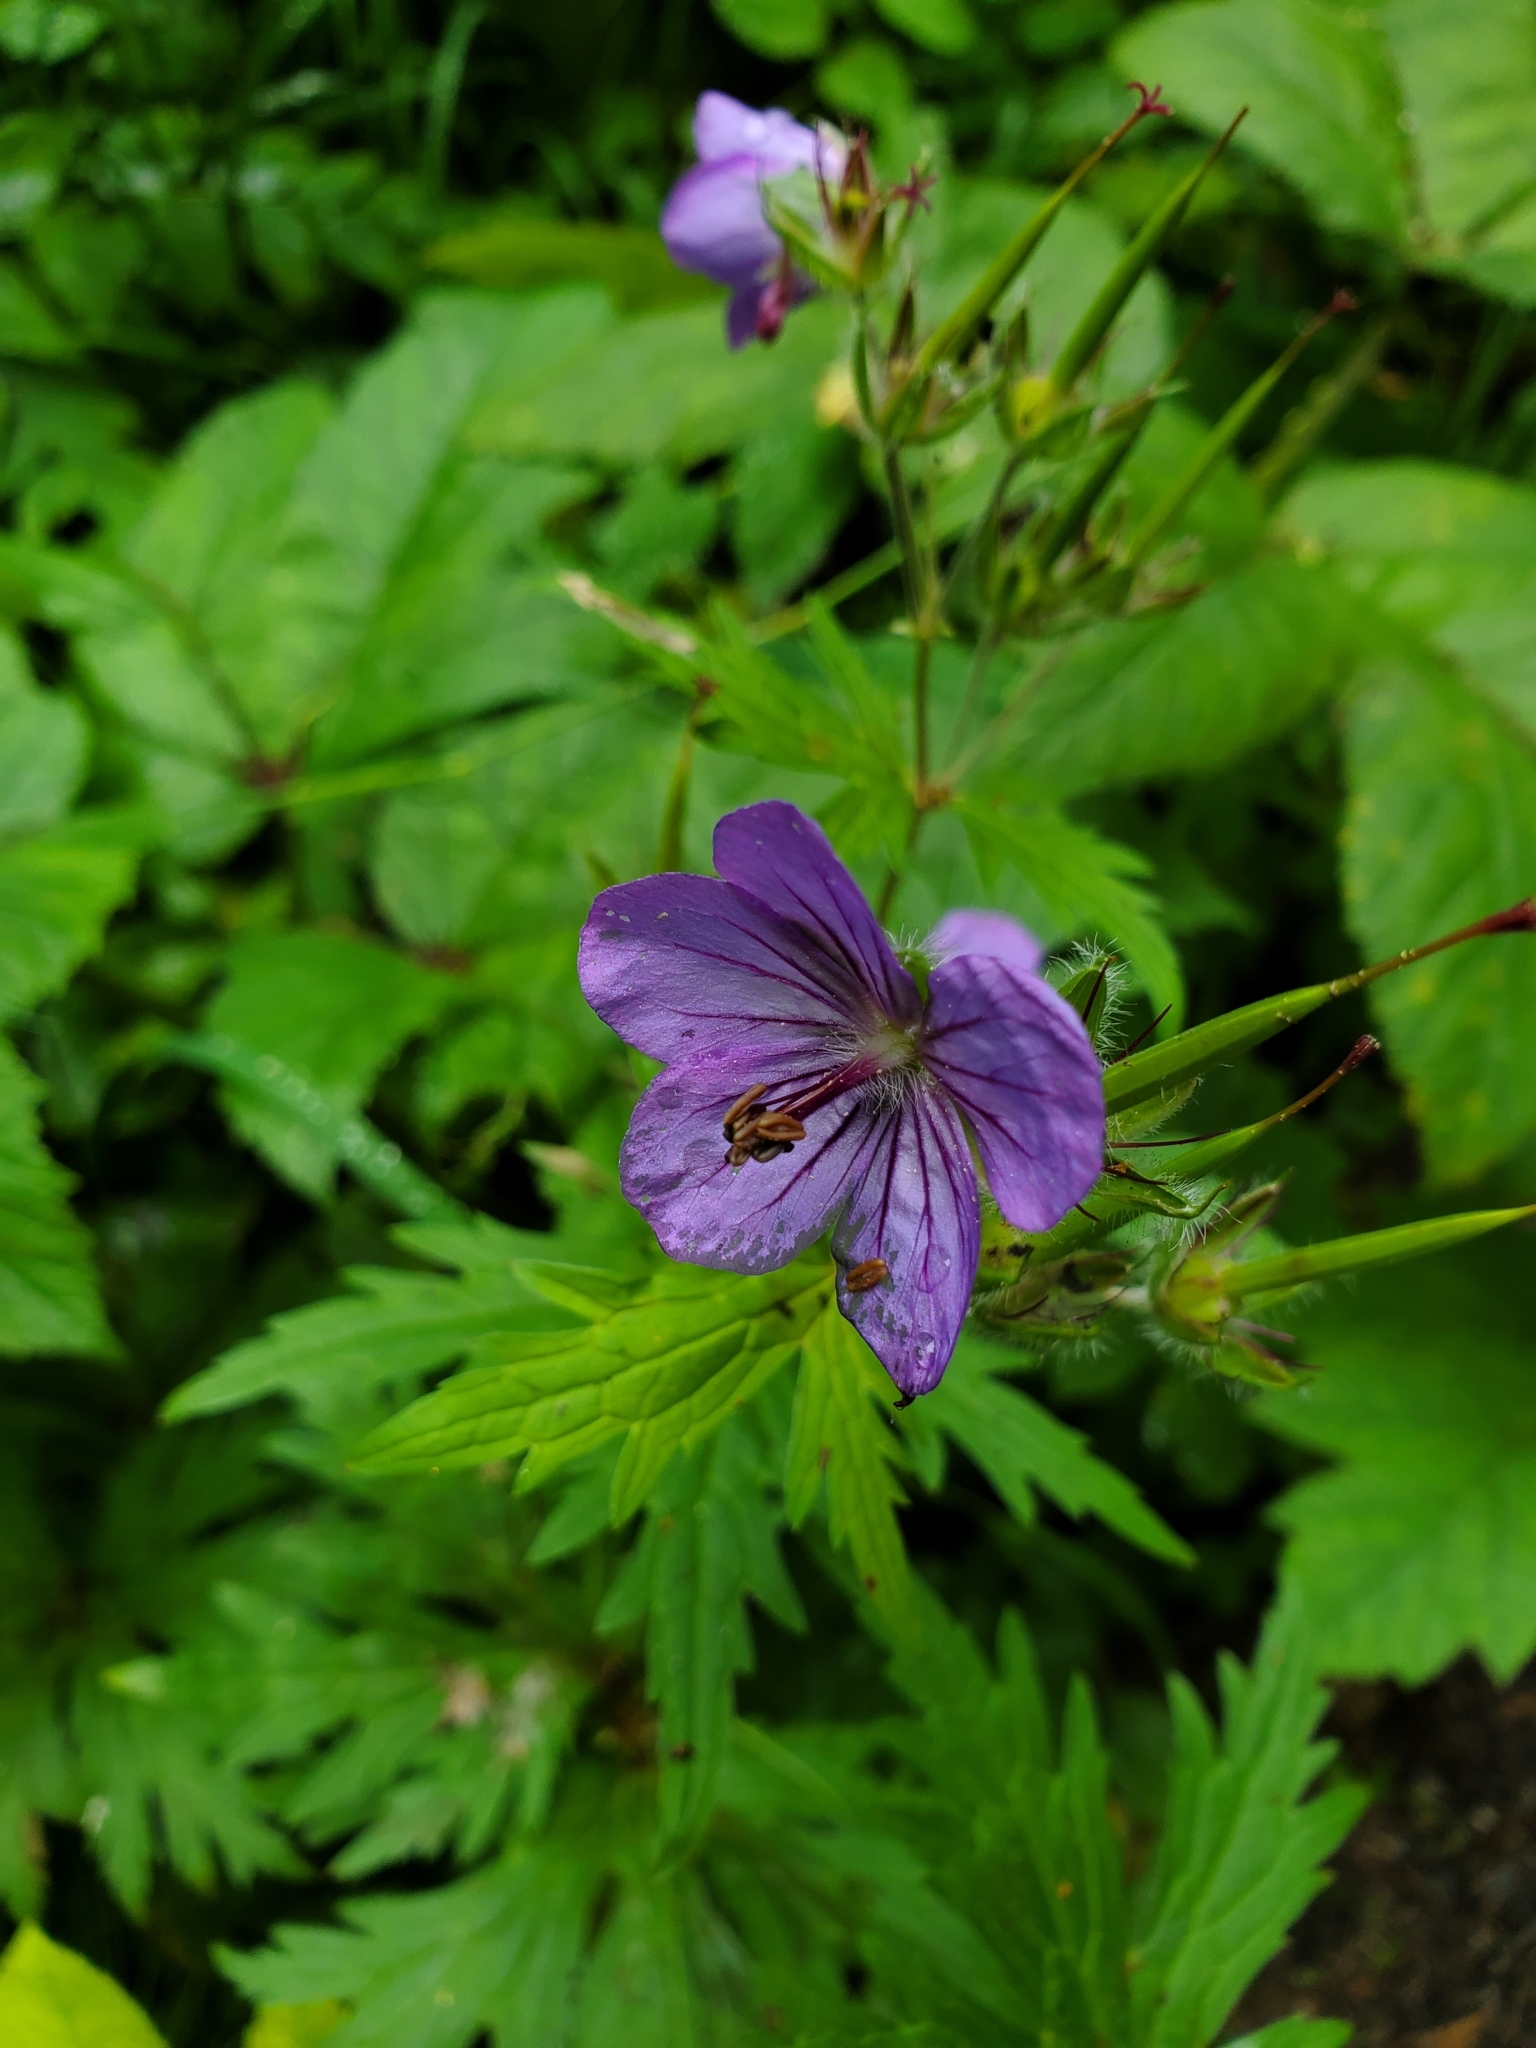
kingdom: Plantae
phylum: Tracheophyta
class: Magnoliopsida
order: Geraniales
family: Geraniaceae
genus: Geranium
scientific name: Geranium erianthum
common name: Northern crane's-bill
